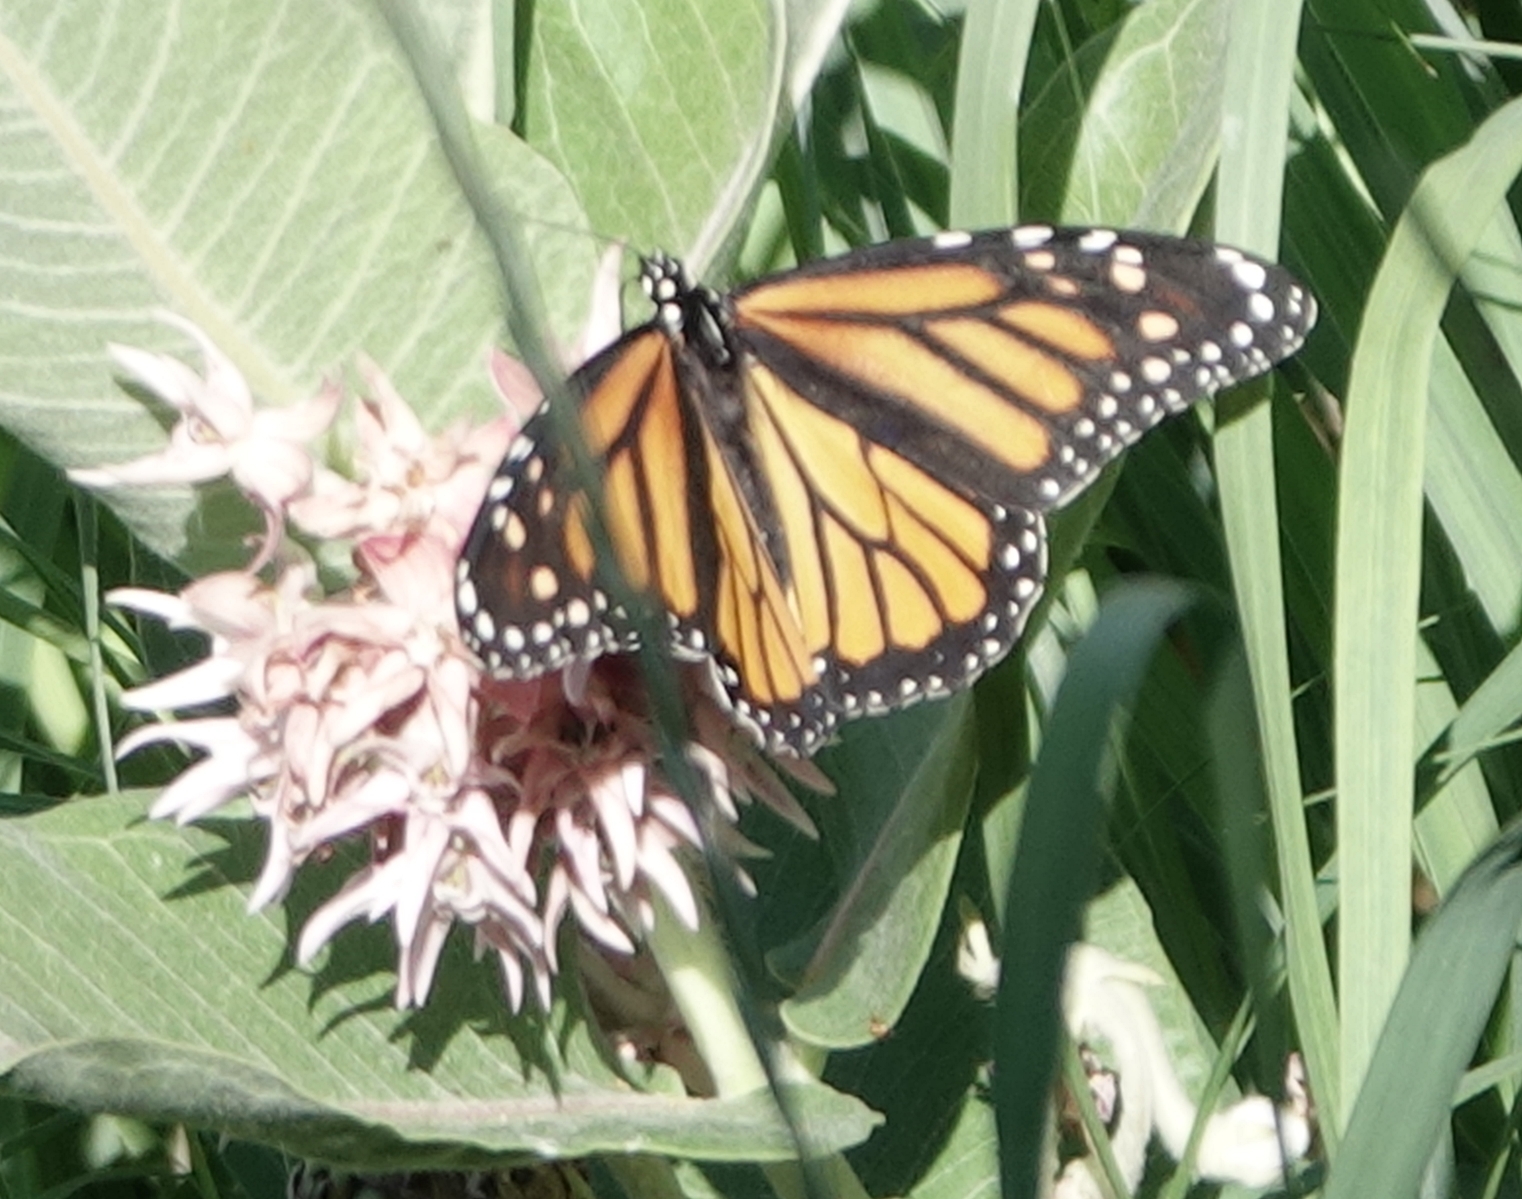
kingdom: Animalia
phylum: Arthropoda
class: Insecta
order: Lepidoptera
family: Nymphalidae
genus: Danaus
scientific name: Danaus plexippus
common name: Monarch
